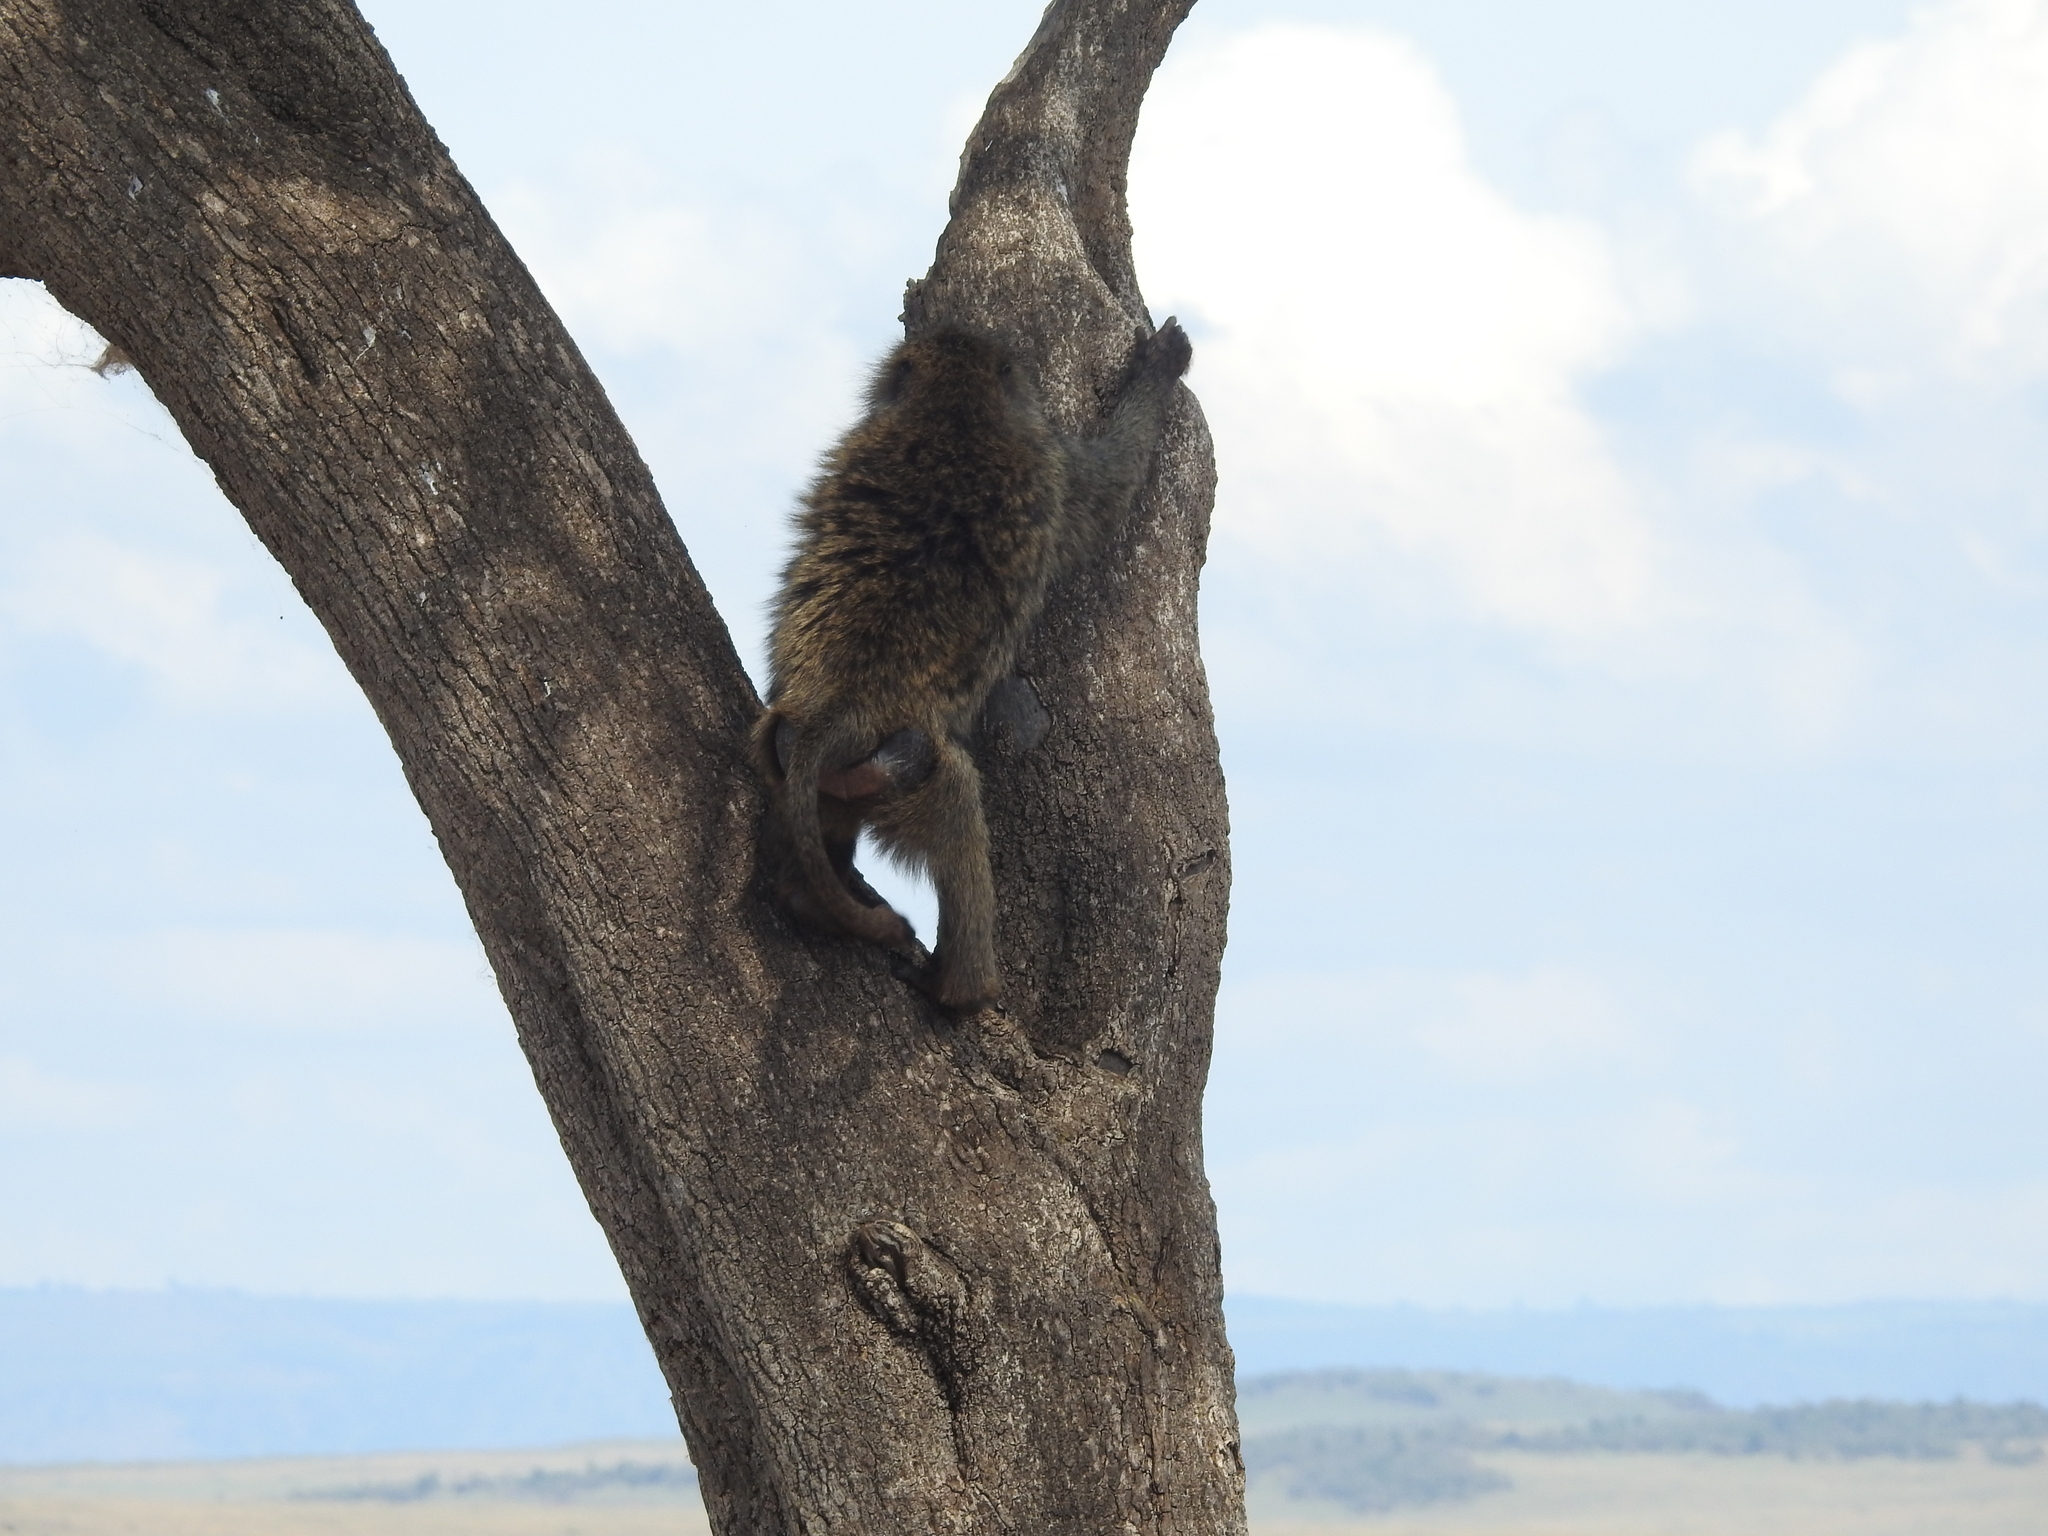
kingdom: Animalia
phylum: Chordata
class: Mammalia
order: Primates
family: Cercopithecidae
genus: Papio
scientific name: Papio anubis
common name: Olive baboon
